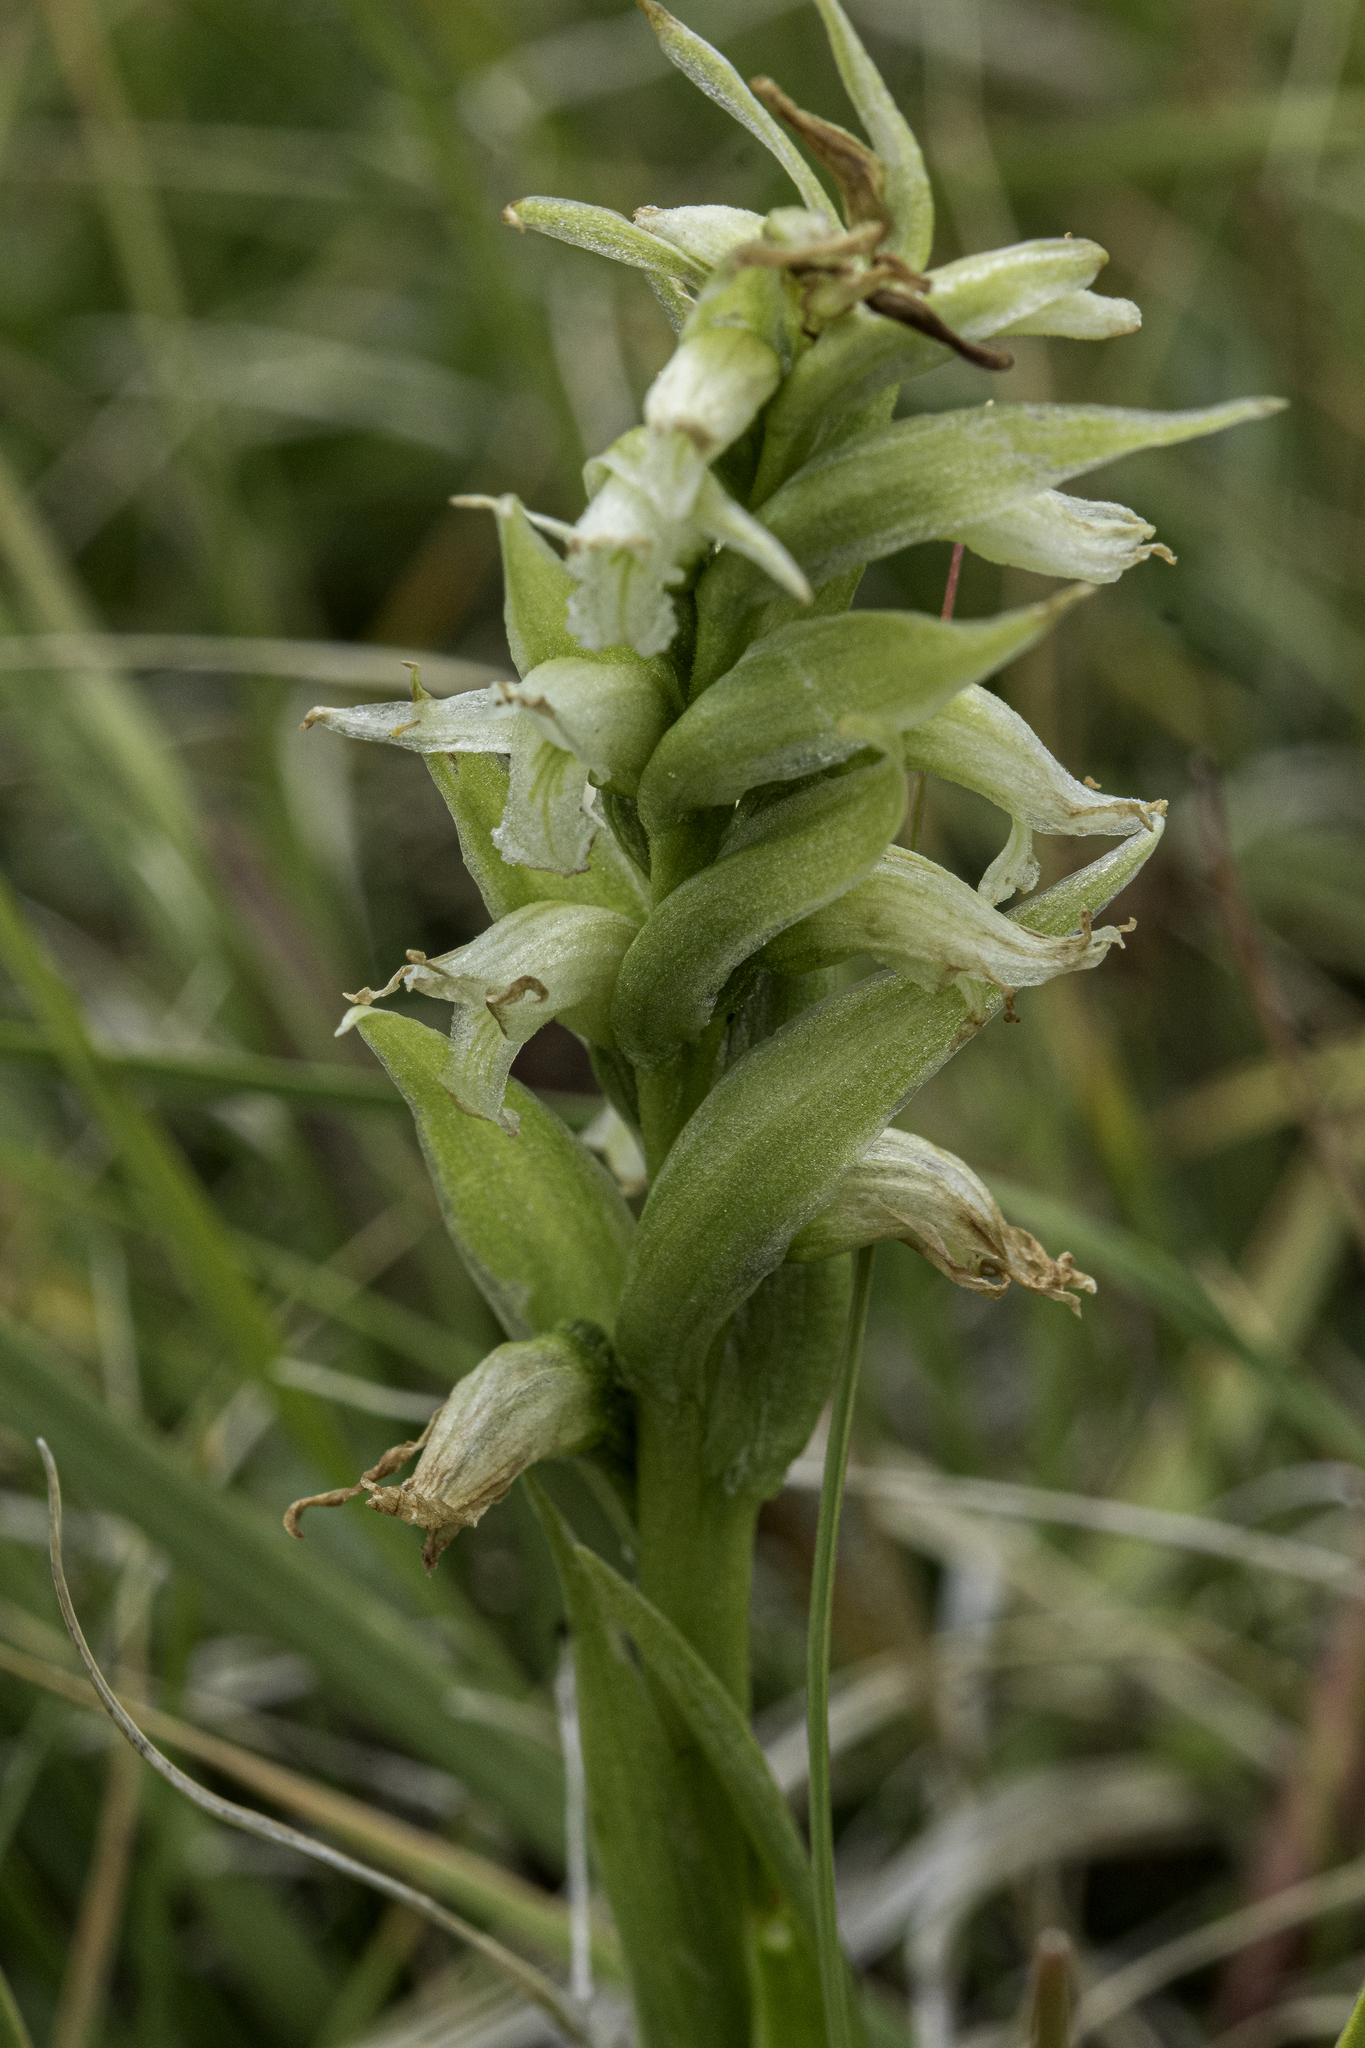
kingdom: Plantae
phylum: Tracheophyta
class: Liliopsida
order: Asparagales
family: Orchidaceae
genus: Spiranthes
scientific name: Spiranthes romanzoffiana
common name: Irish lady's-tresses
